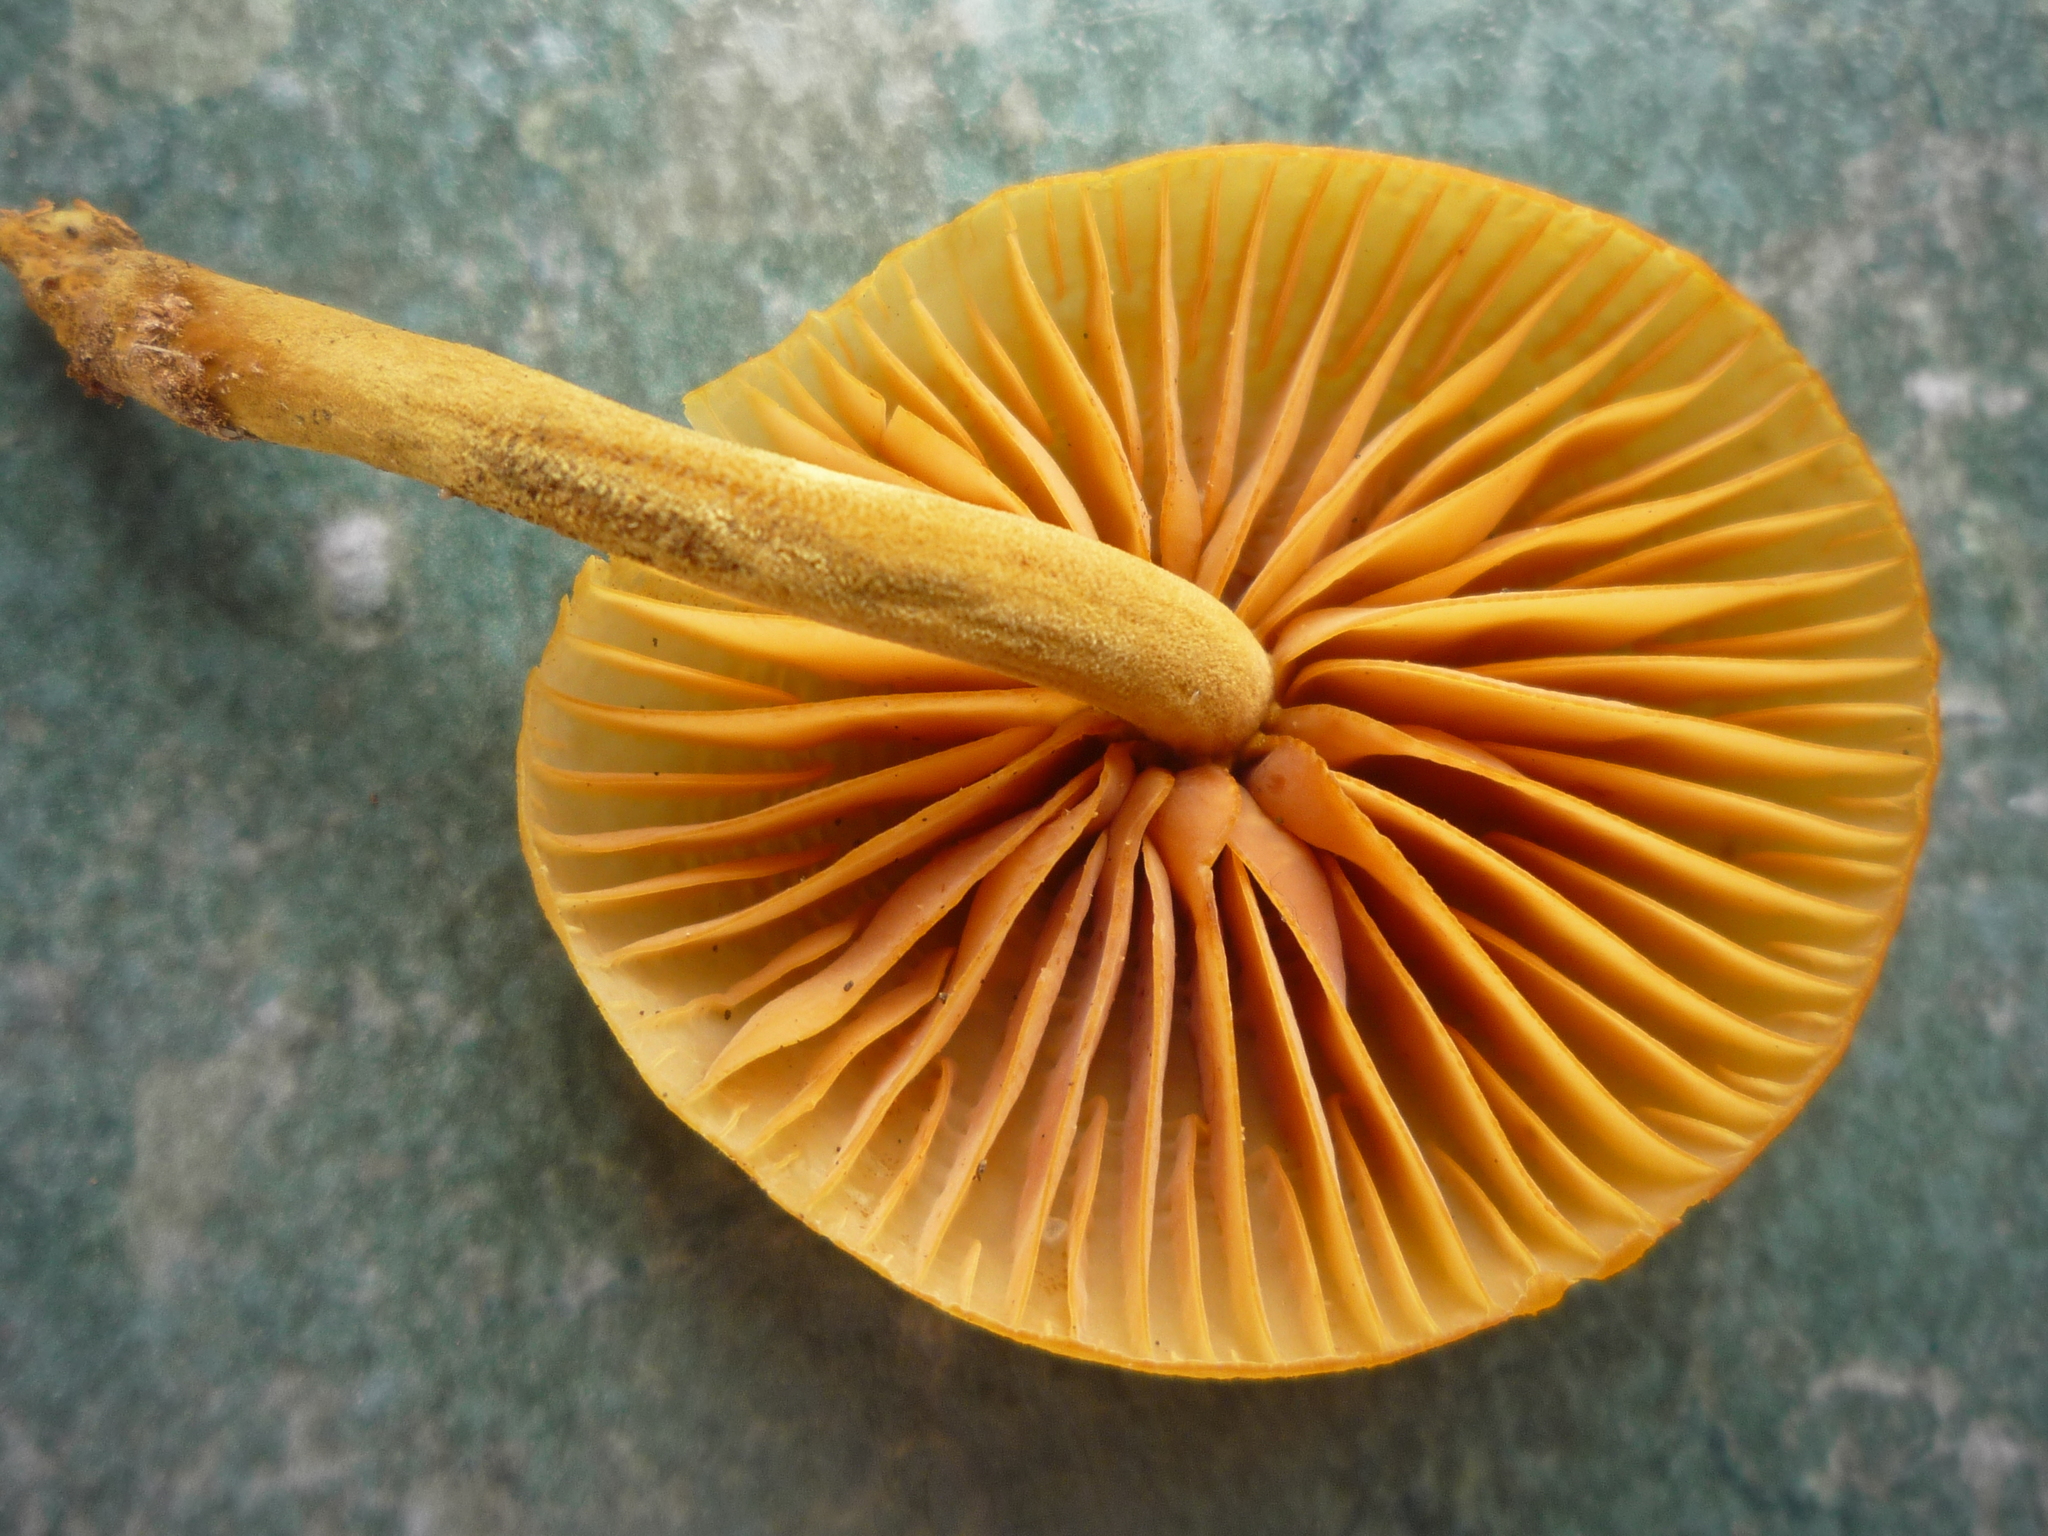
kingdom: Fungi
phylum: Basidiomycota
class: Agaricomycetes
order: Agaricales
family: Mycenaceae
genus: Heimiomyces
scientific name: Heimiomyces velutipes
